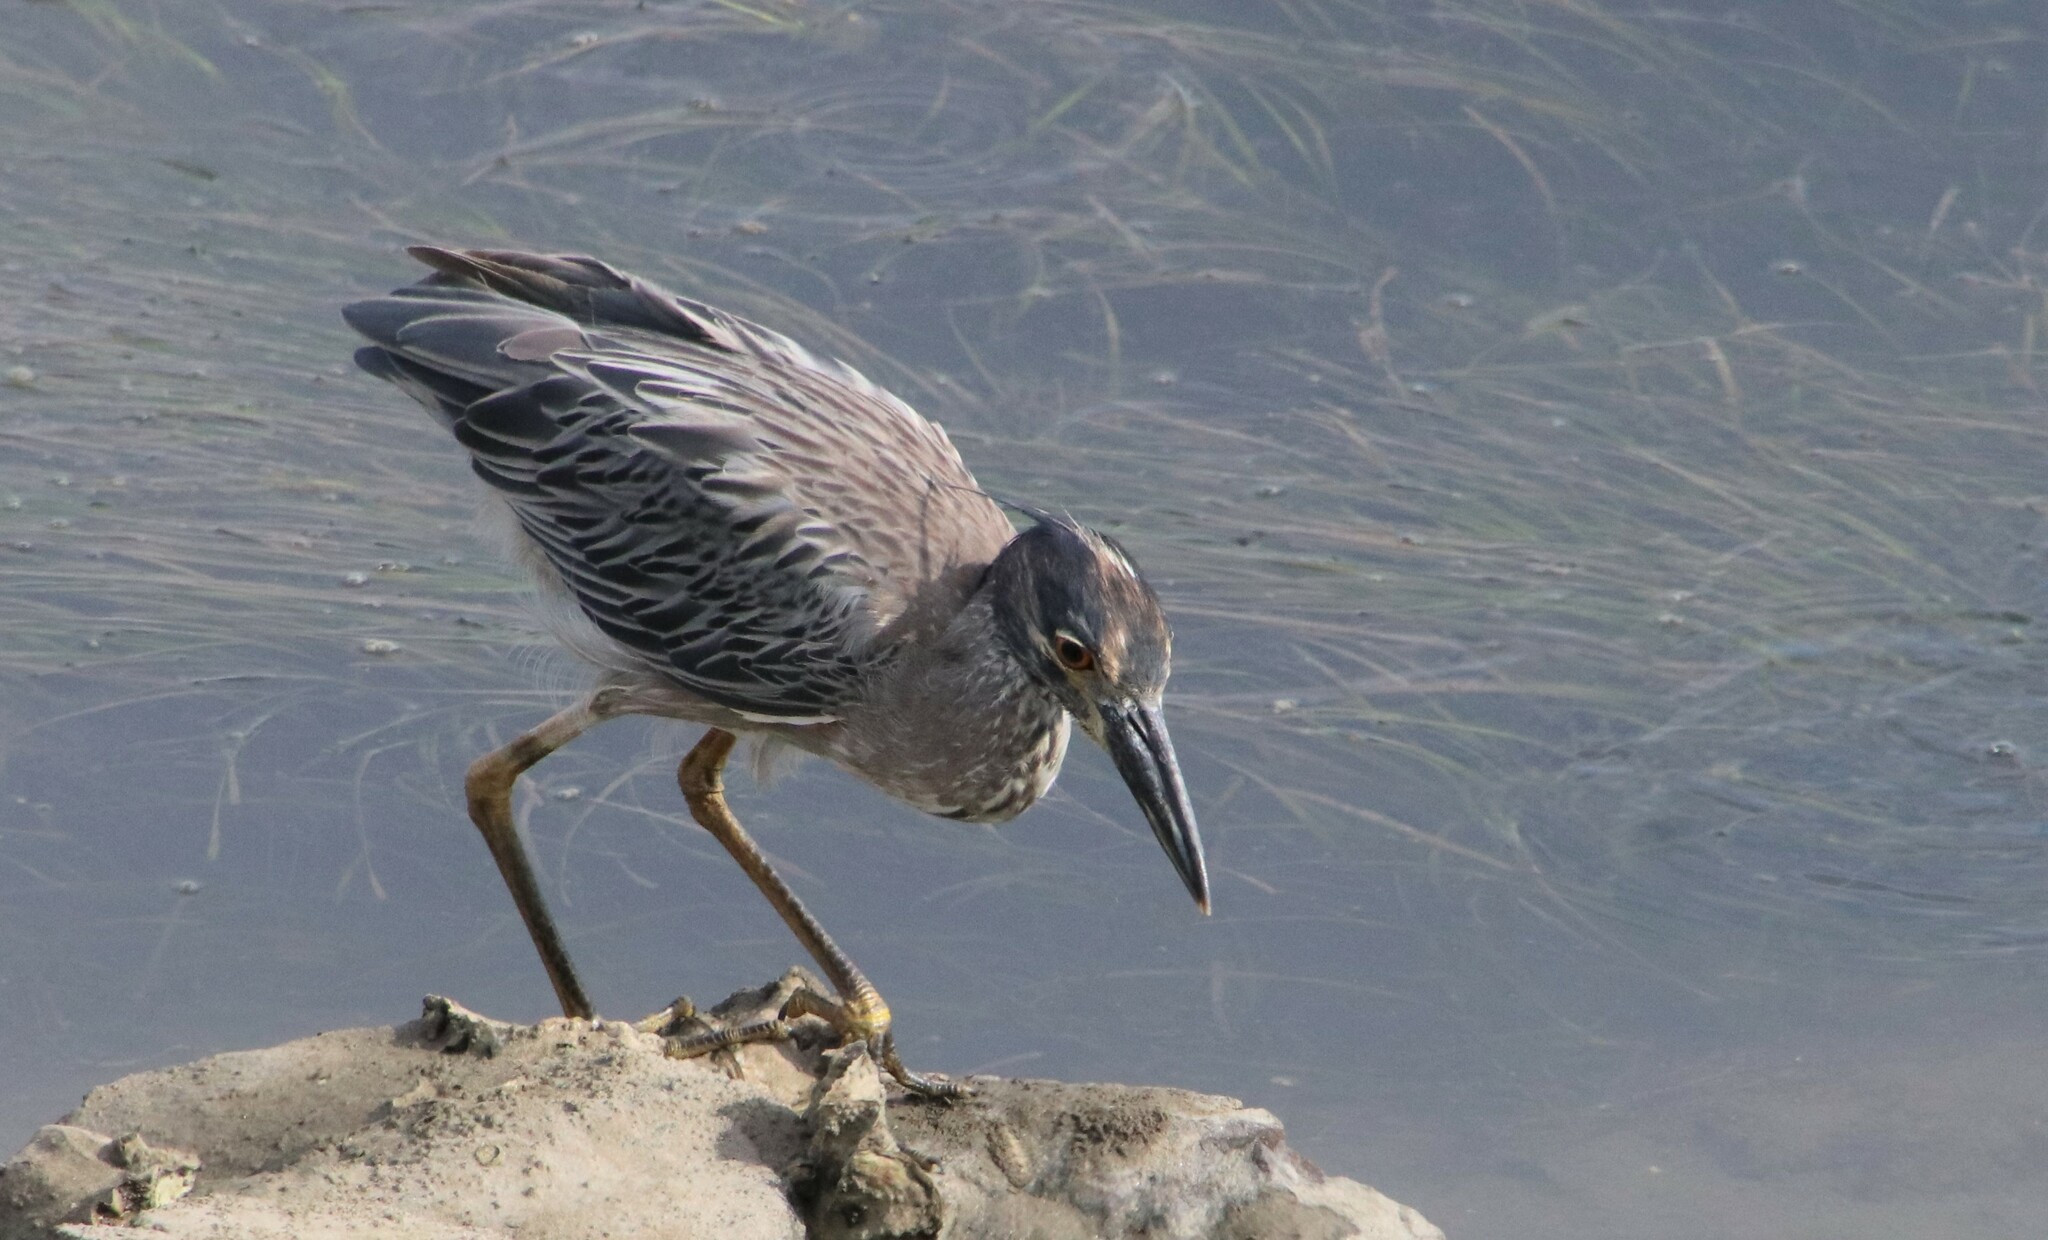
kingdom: Animalia
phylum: Chordata
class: Aves
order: Pelecaniformes
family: Ardeidae
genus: Nyctanassa
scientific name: Nyctanassa violacea
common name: Yellow-crowned night heron
